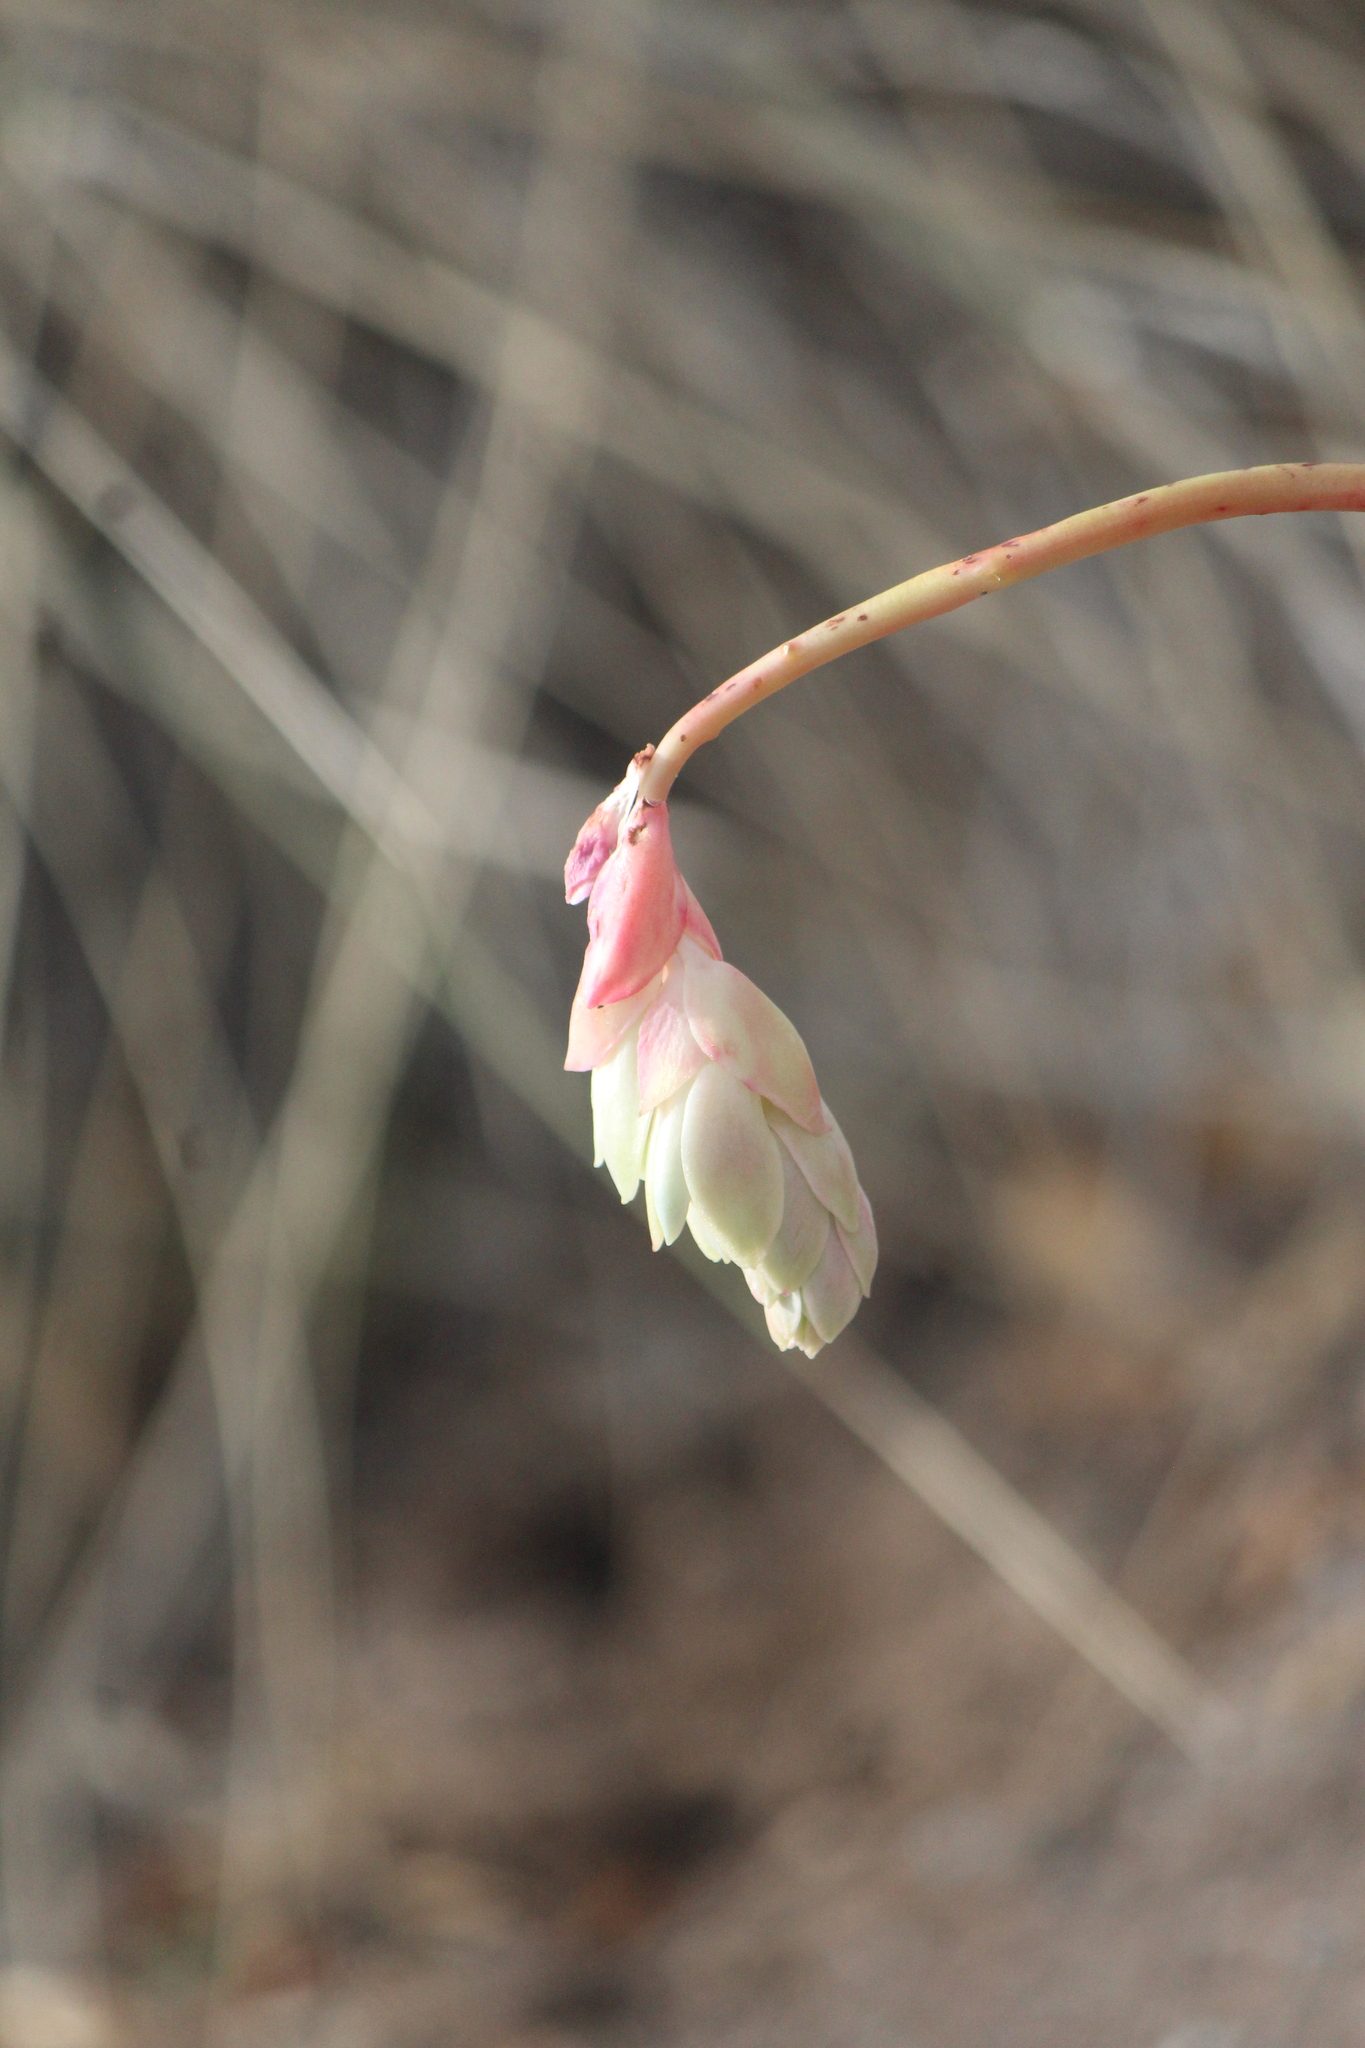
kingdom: Plantae
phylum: Tracheophyta
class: Magnoliopsida
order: Saxifragales
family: Crassulaceae
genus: Pachyphytum
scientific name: Pachyphytum viride
